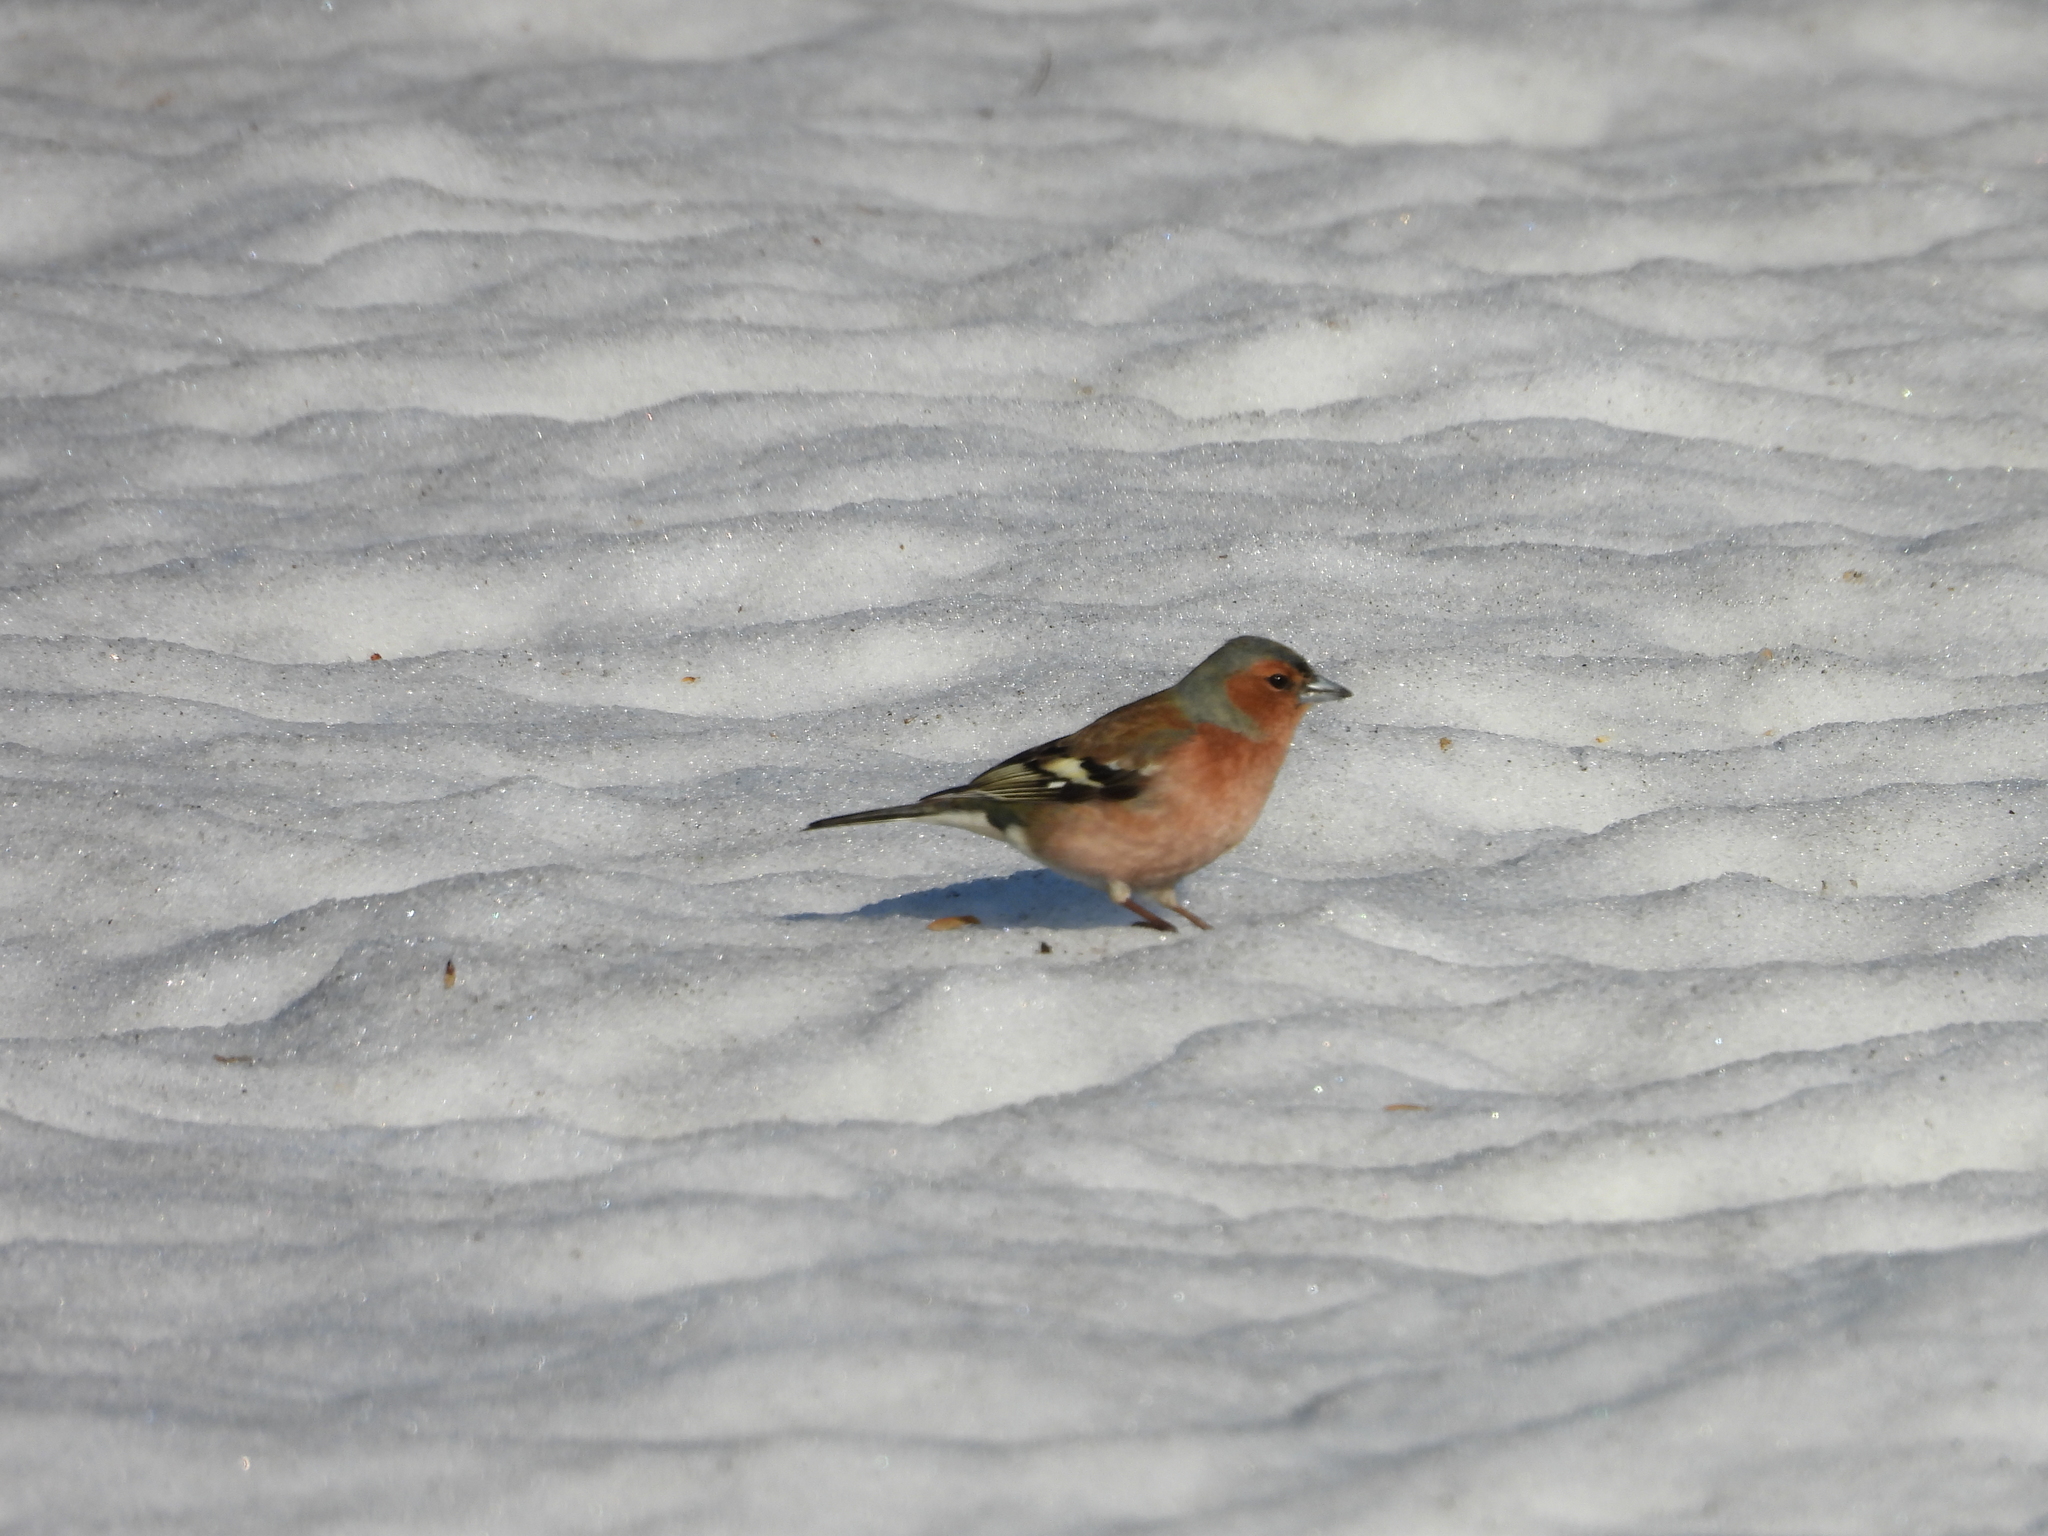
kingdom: Animalia
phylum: Chordata
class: Aves
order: Passeriformes
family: Fringillidae
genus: Fringilla
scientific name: Fringilla coelebs
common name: Common chaffinch
